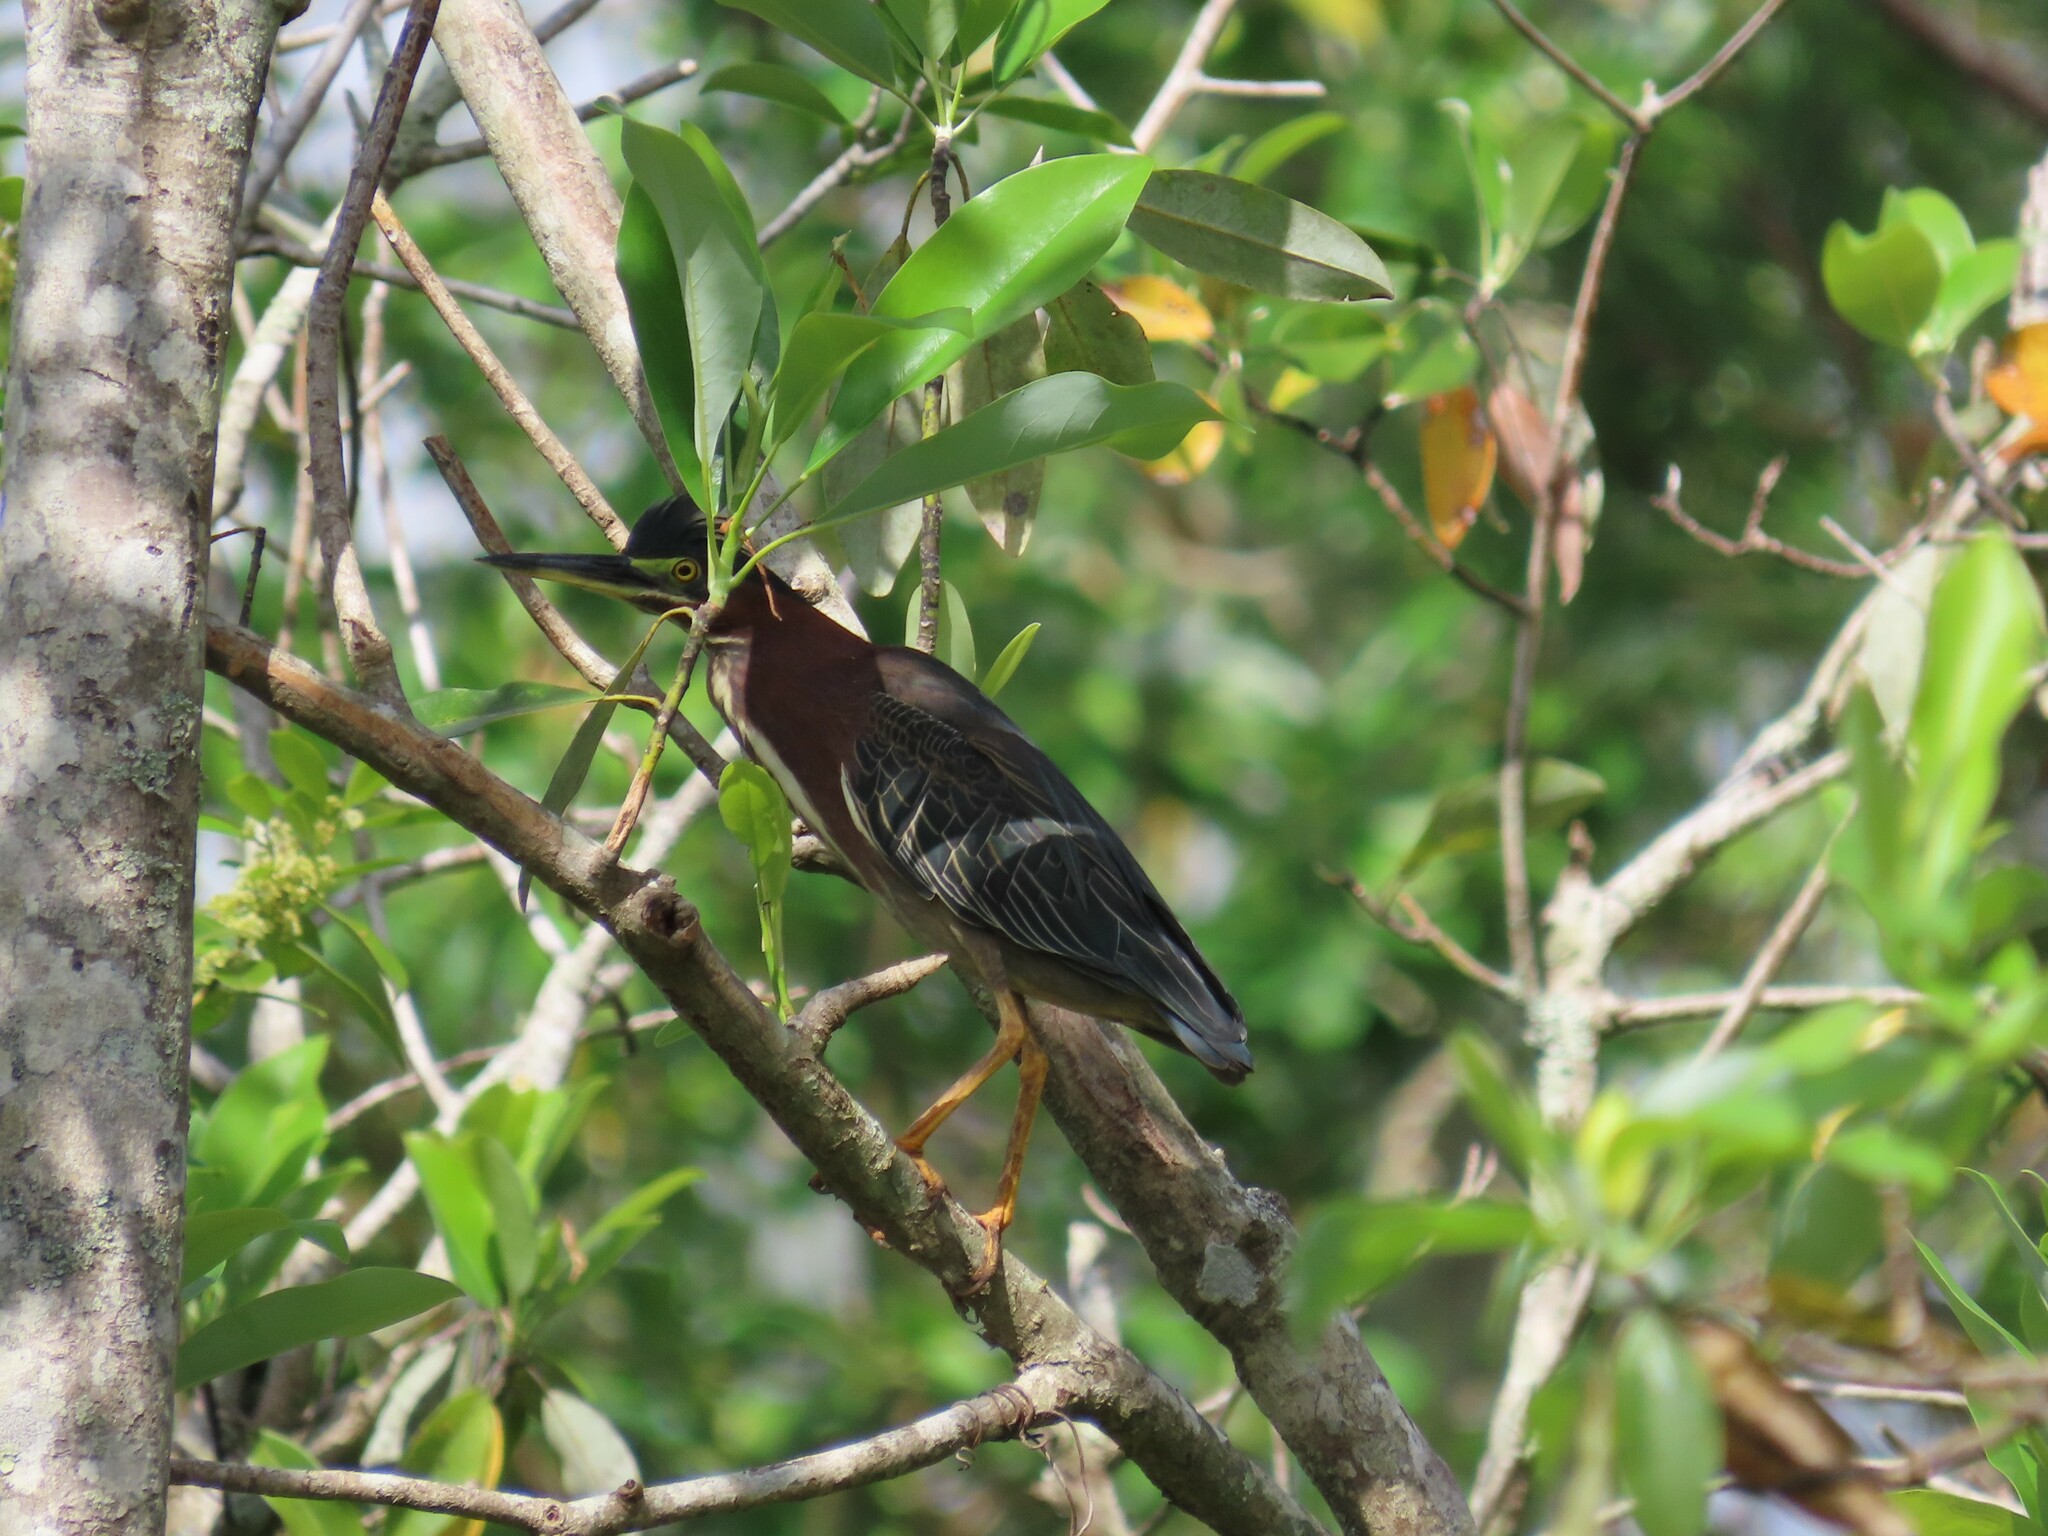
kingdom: Animalia
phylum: Chordata
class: Aves
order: Pelecaniformes
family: Ardeidae
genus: Butorides
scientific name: Butorides virescens
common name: Green heron
